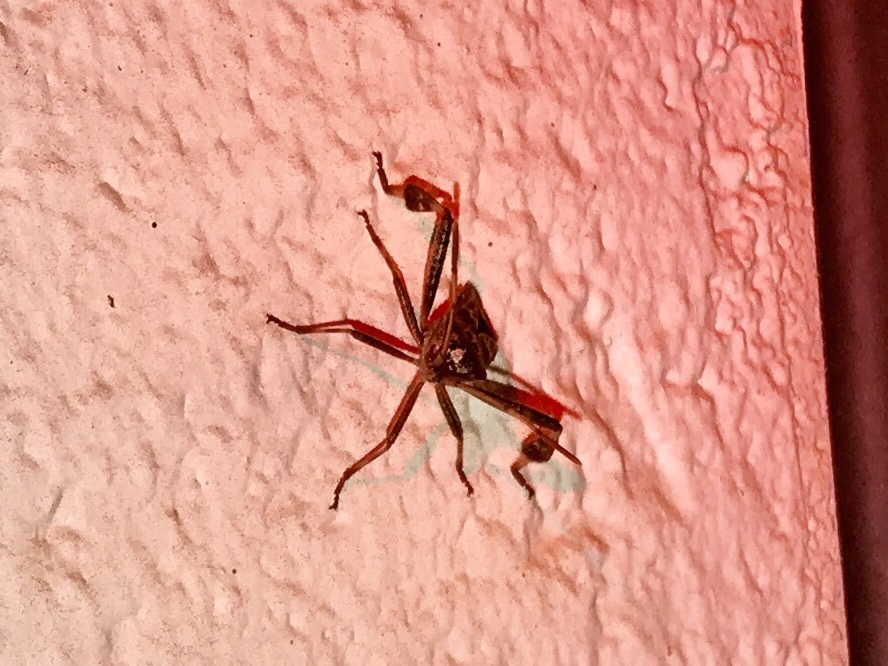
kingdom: Animalia
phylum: Arthropoda
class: Insecta
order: Hemiptera
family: Coreidae
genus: Leptoglossus
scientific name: Leptoglossus occidentalis
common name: Western conifer-seed bug
